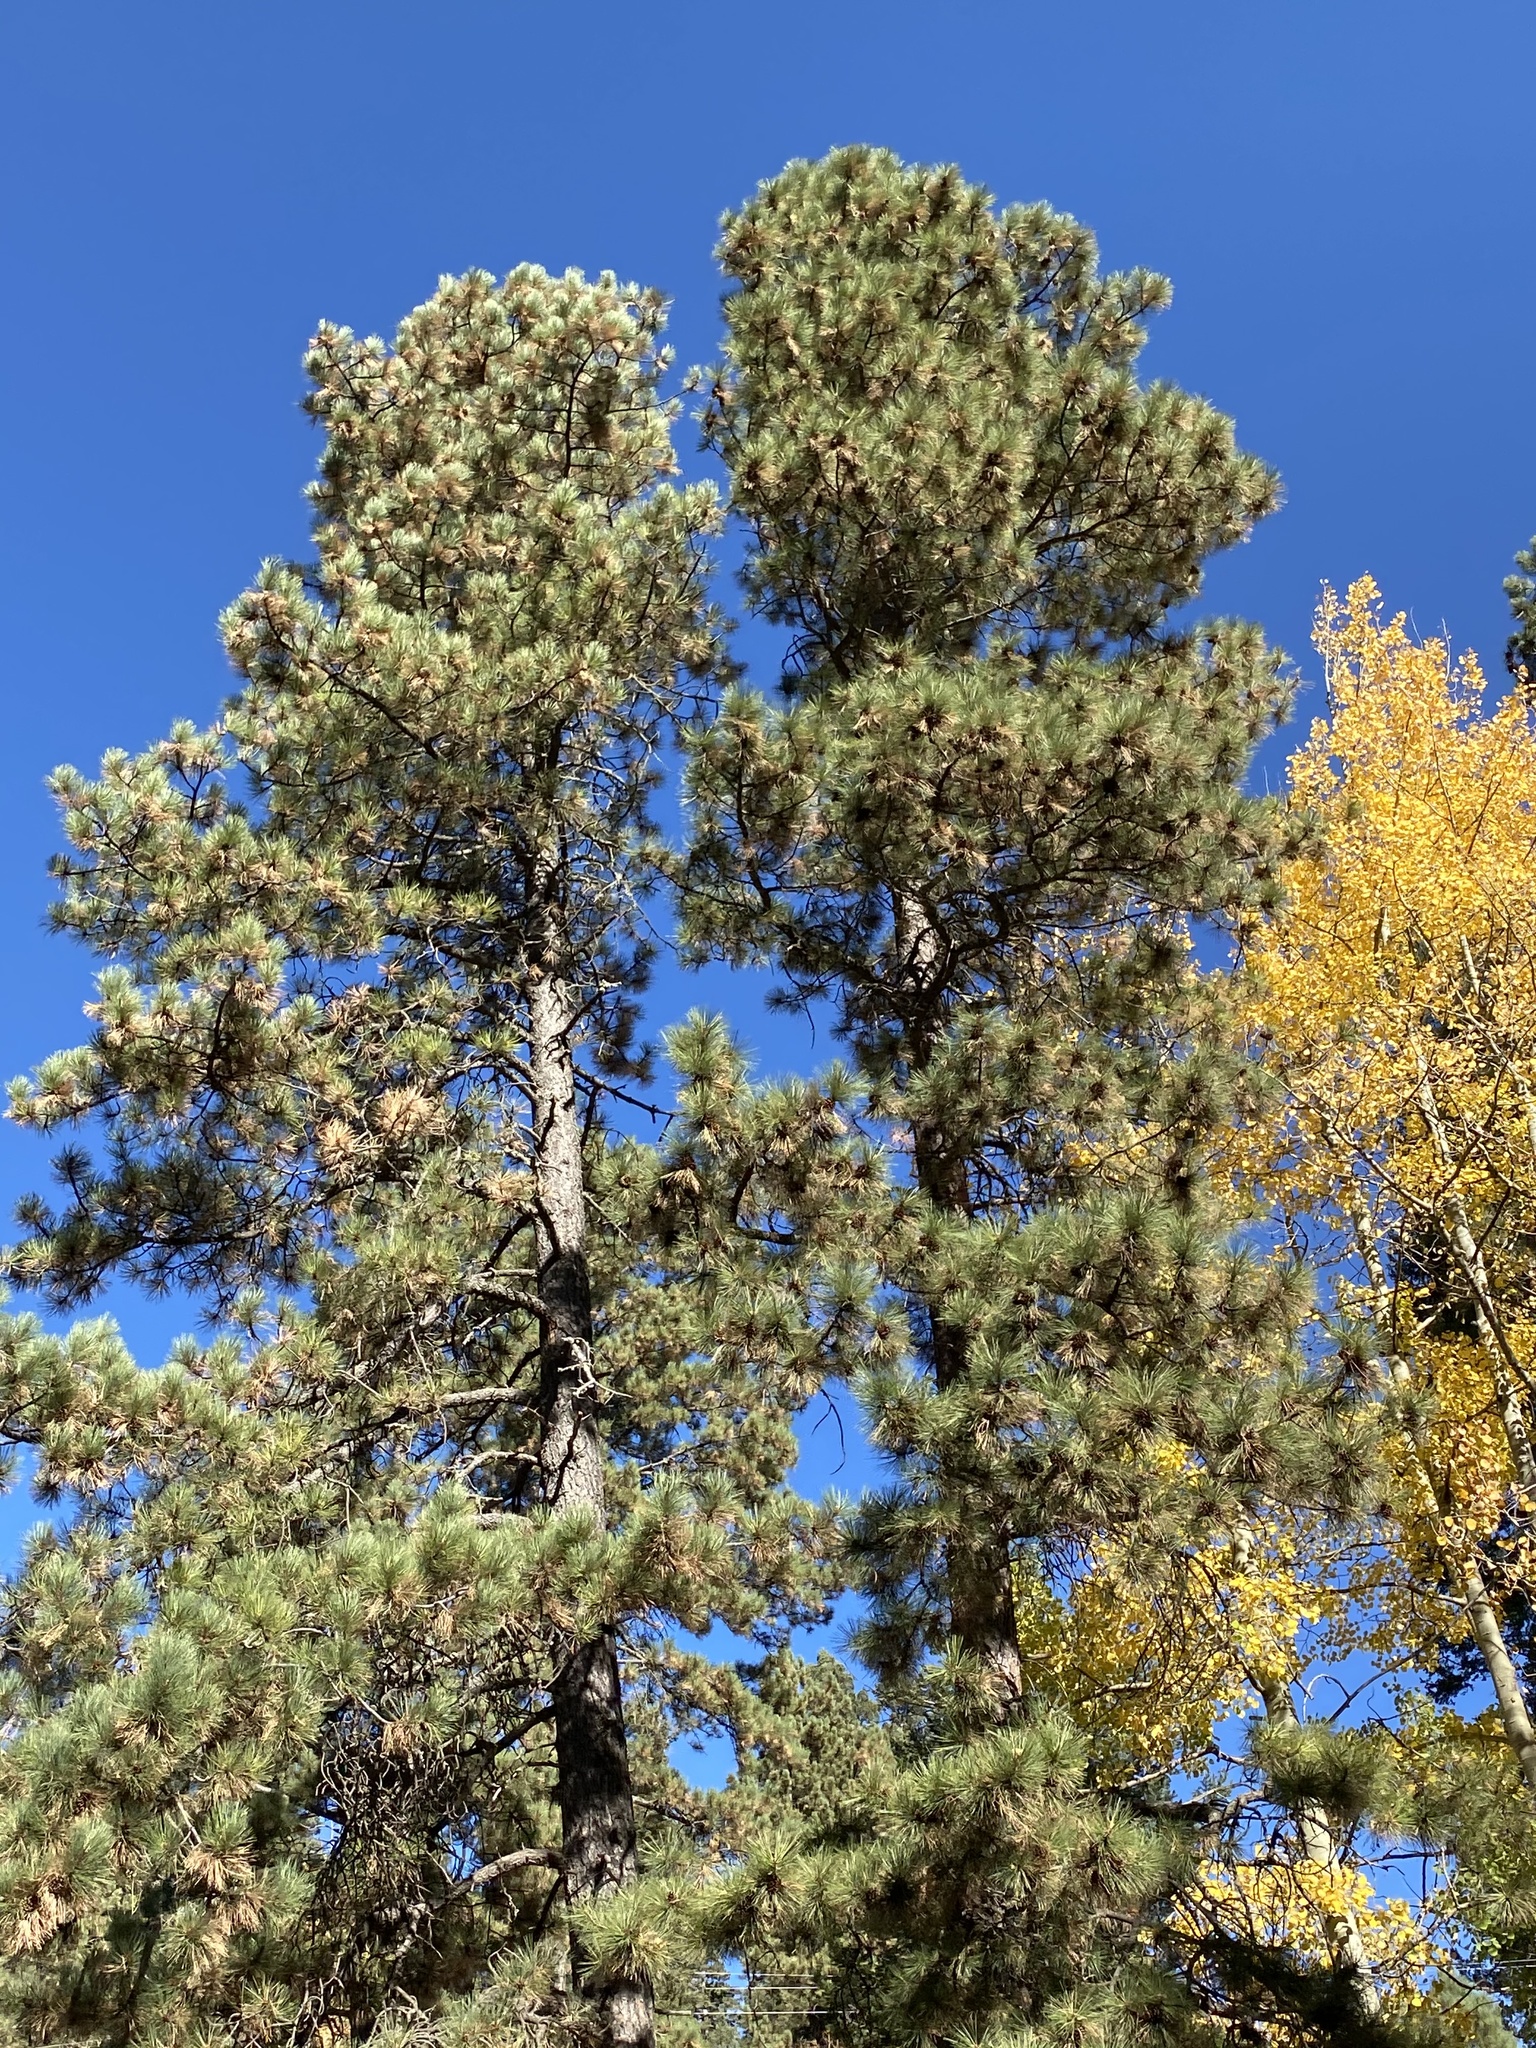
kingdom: Plantae
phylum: Tracheophyta
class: Pinopsida
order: Pinales
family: Pinaceae
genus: Pinus
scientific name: Pinus ponderosa
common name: Western yellow-pine
